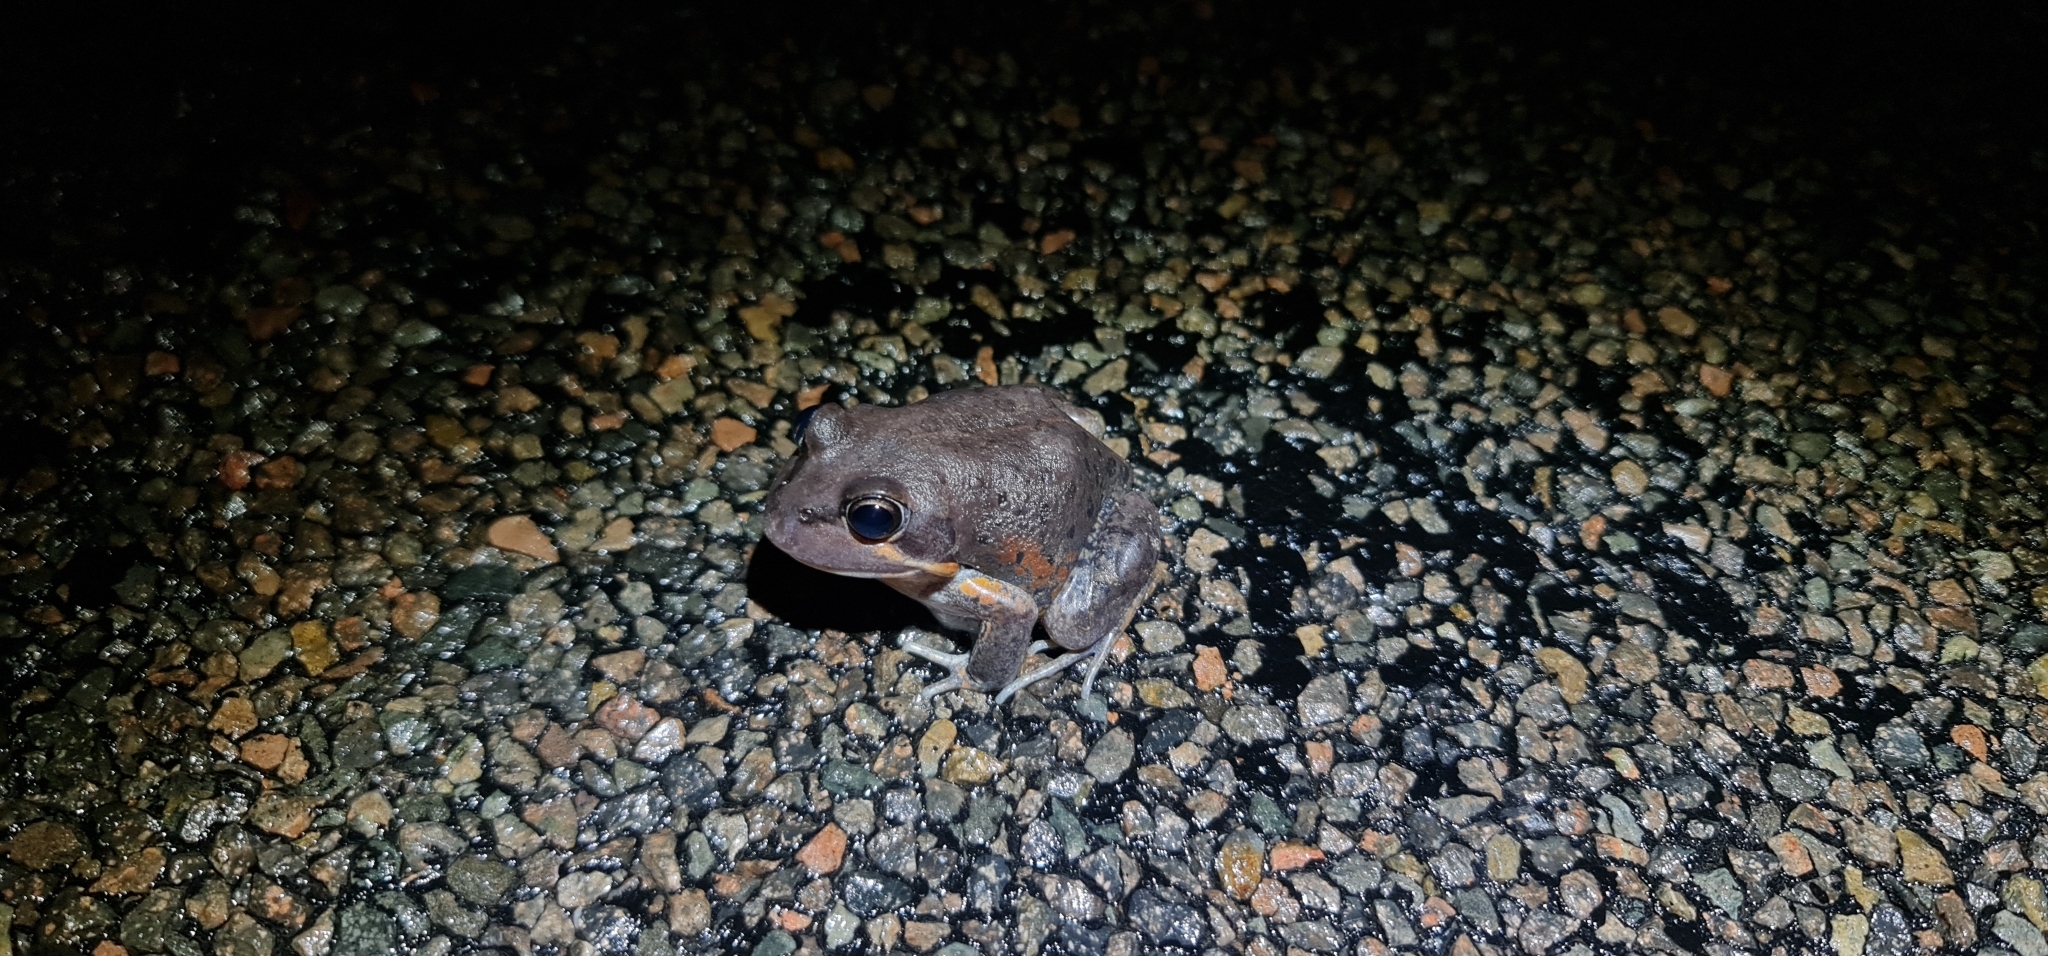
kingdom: Animalia
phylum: Chordata
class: Amphibia
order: Anura
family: Limnodynastidae
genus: Limnodynastes
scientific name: Limnodynastes terraereginae
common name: Northern banjo frog
